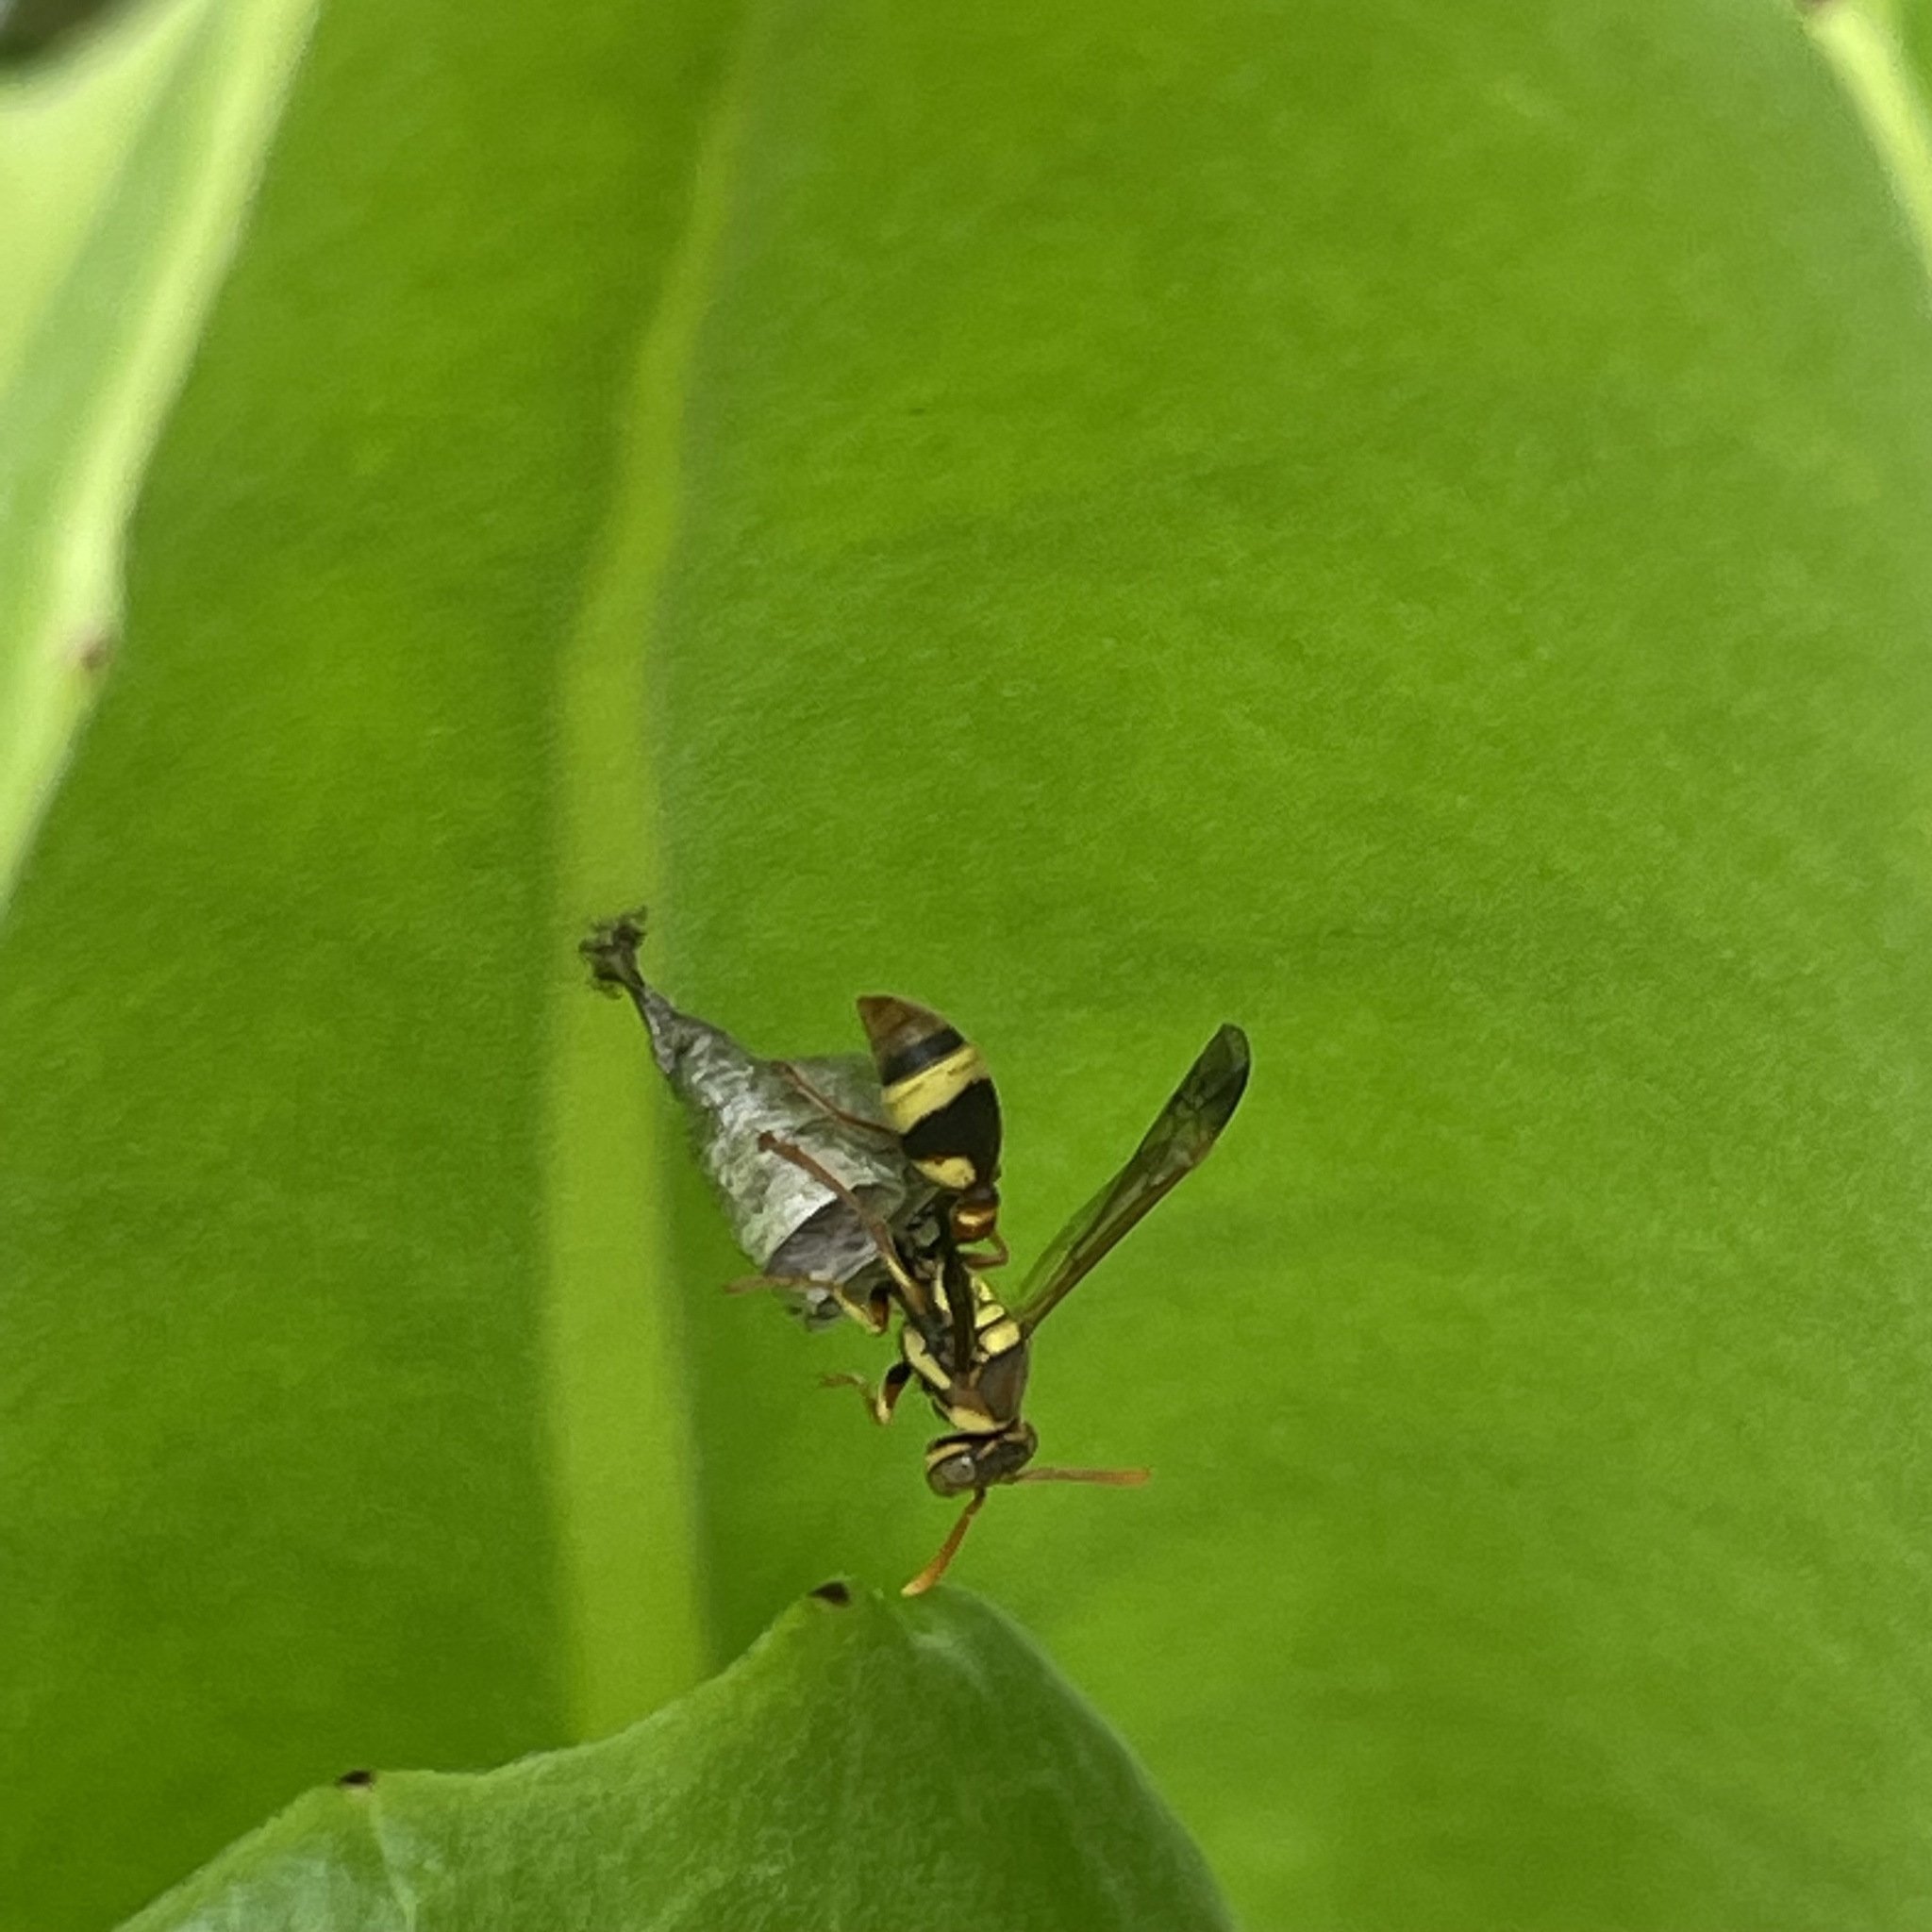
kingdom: Animalia
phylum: Arthropoda
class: Insecta
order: Hymenoptera
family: Vespidae
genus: Ropalidia
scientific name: Ropalidia fasciata
